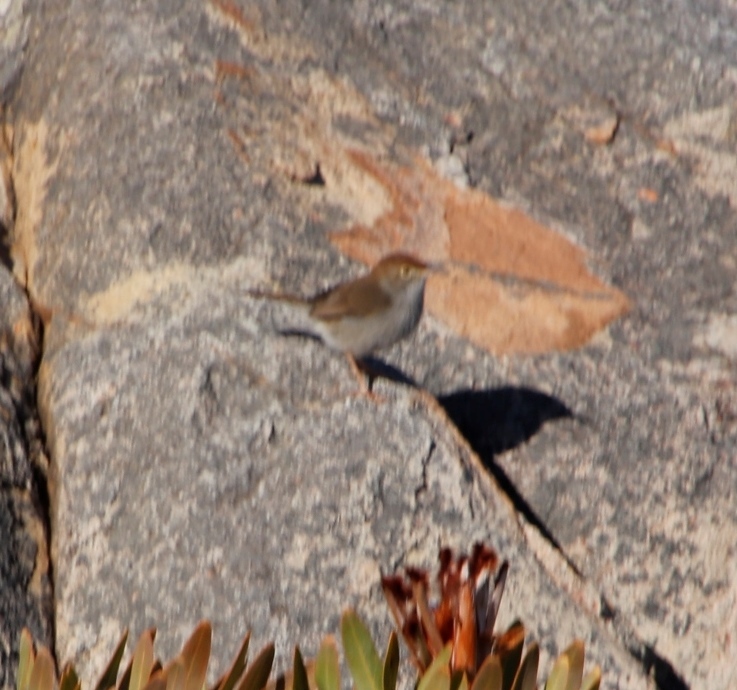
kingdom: Animalia
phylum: Chordata
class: Aves
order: Passeriformes
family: Cisticolidae
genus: Cisticola
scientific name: Cisticola fulvicapilla
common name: Neddicky
